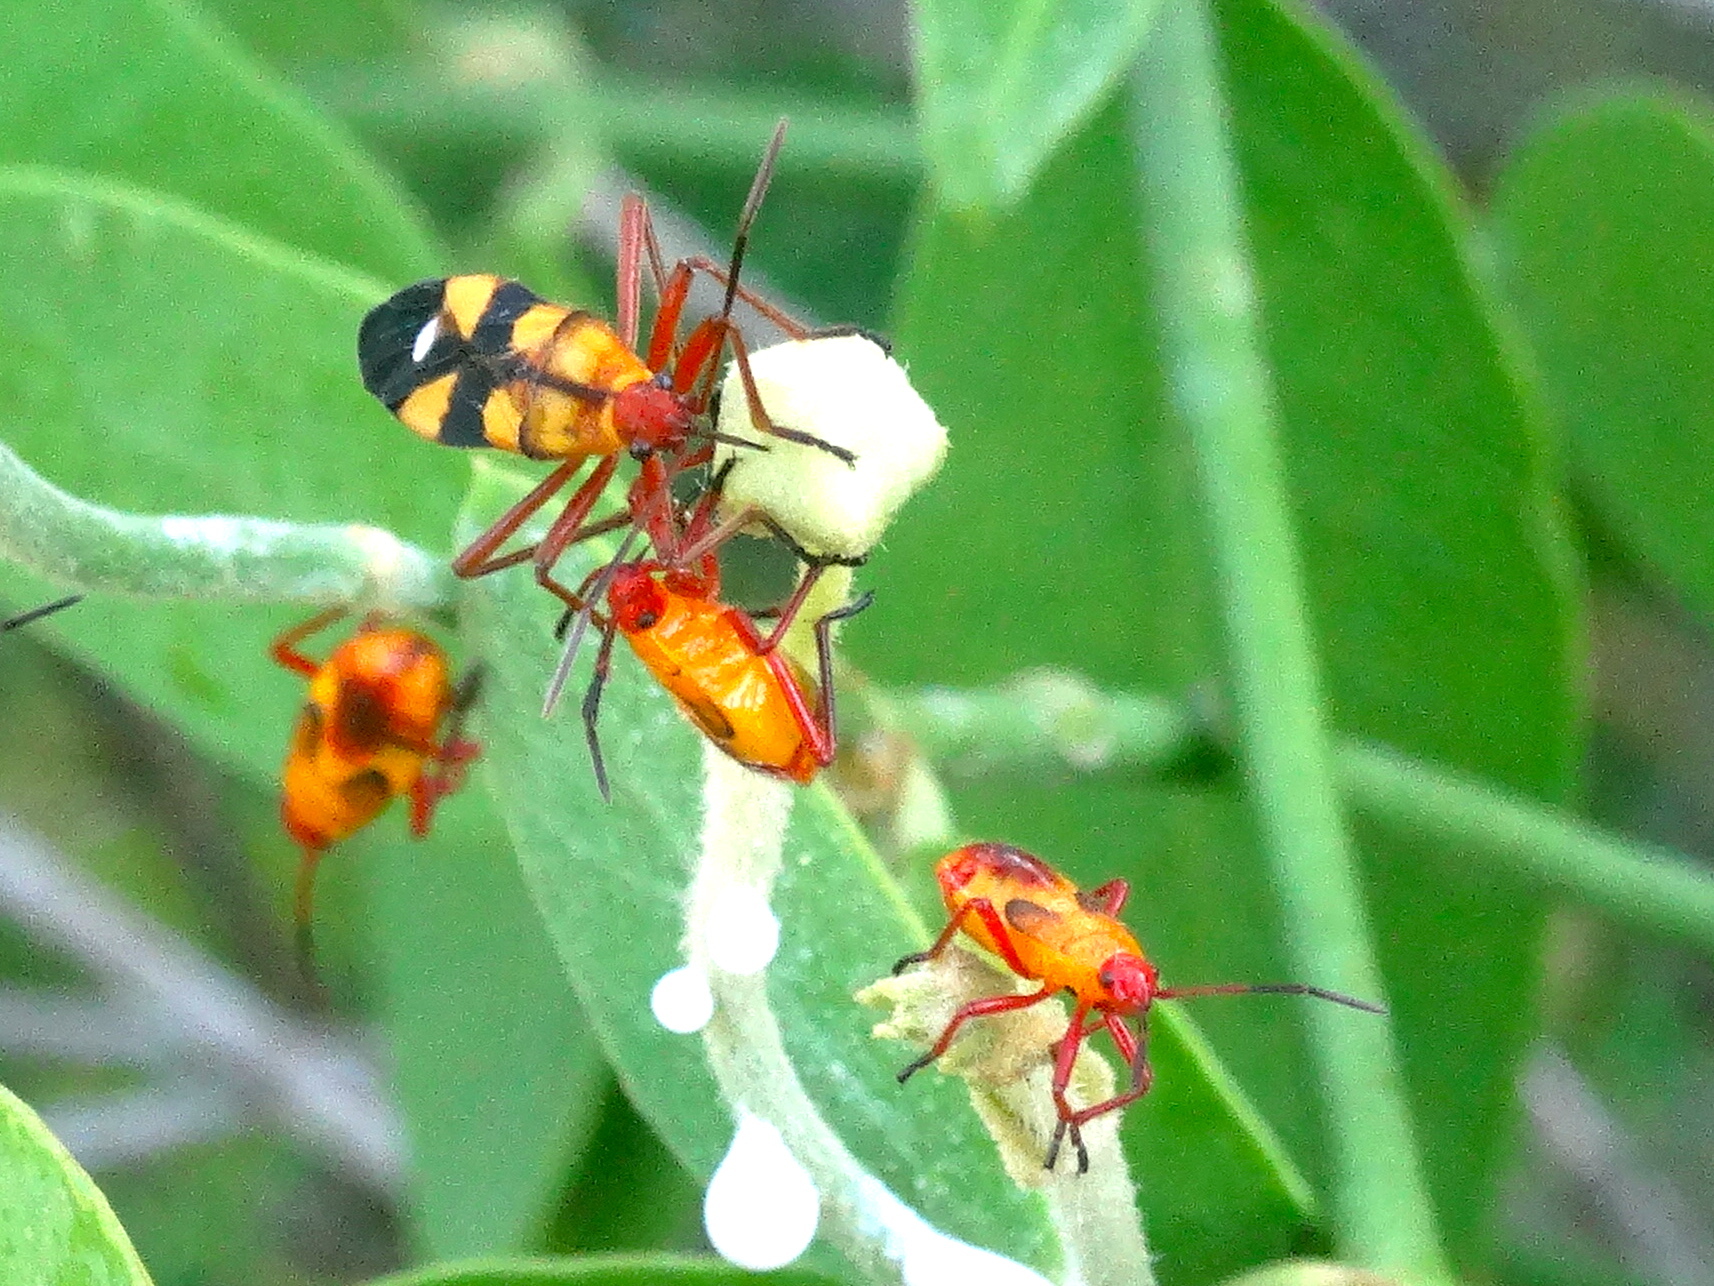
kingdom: Animalia
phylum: Arthropoda
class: Insecta
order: Hemiptera
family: Lygaeidae
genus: Oncopeltus
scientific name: Oncopeltus guttaloides
